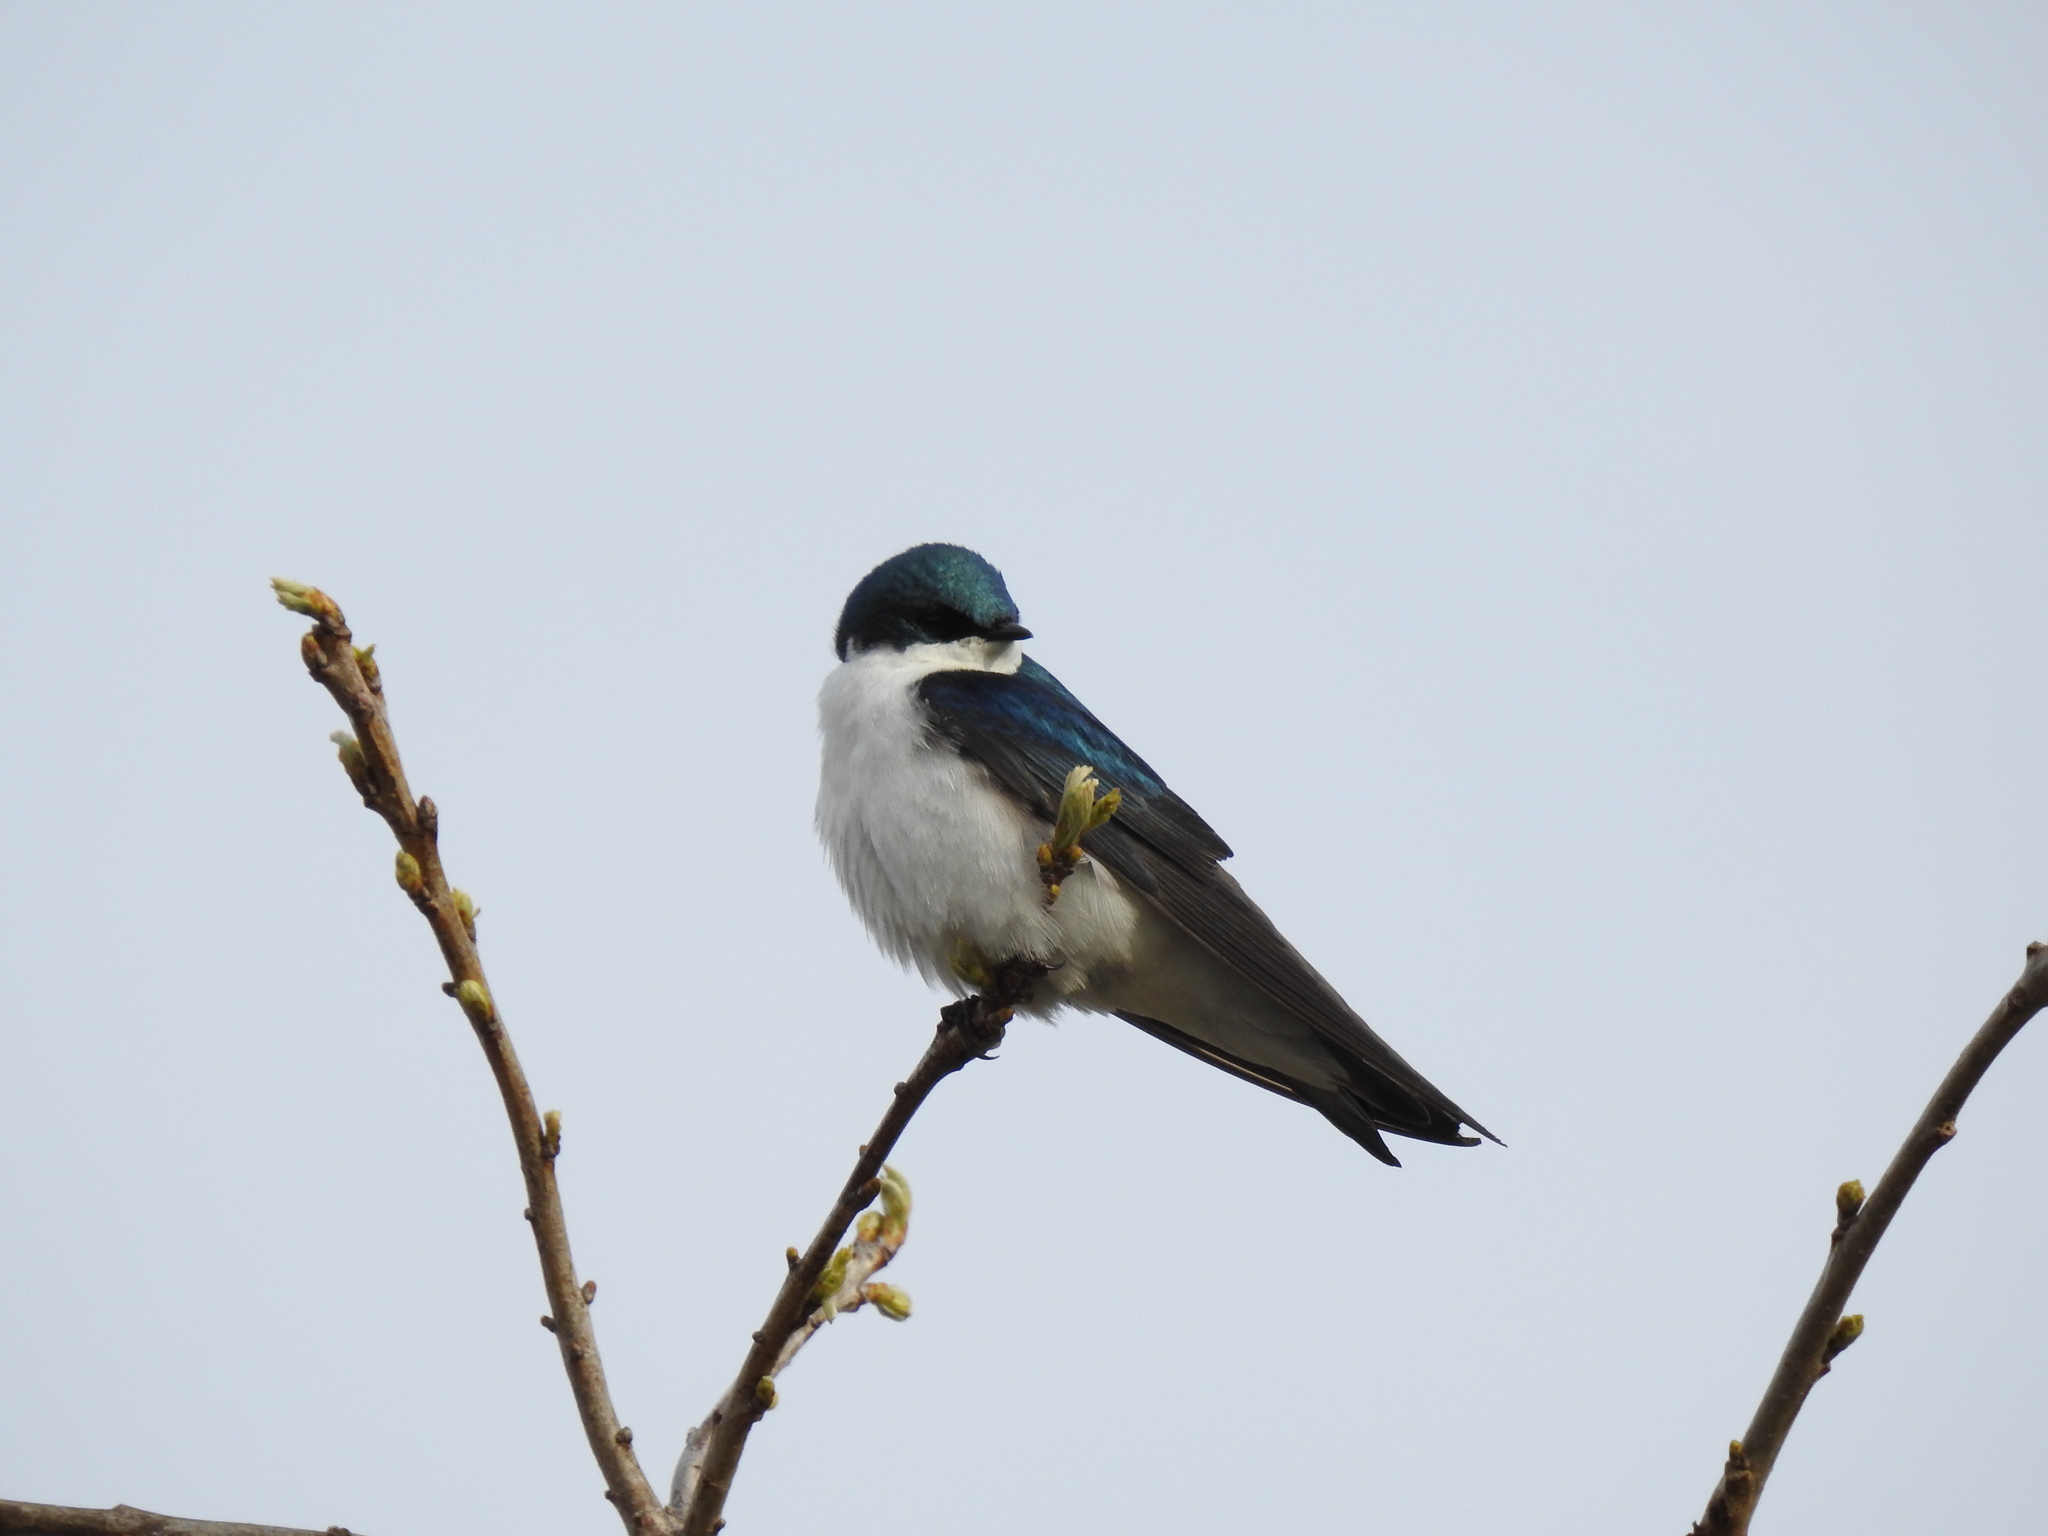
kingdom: Animalia
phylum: Chordata
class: Aves
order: Passeriformes
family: Hirundinidae
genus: Tachycineta
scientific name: Tachycineta bicolor
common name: Tree swallow
